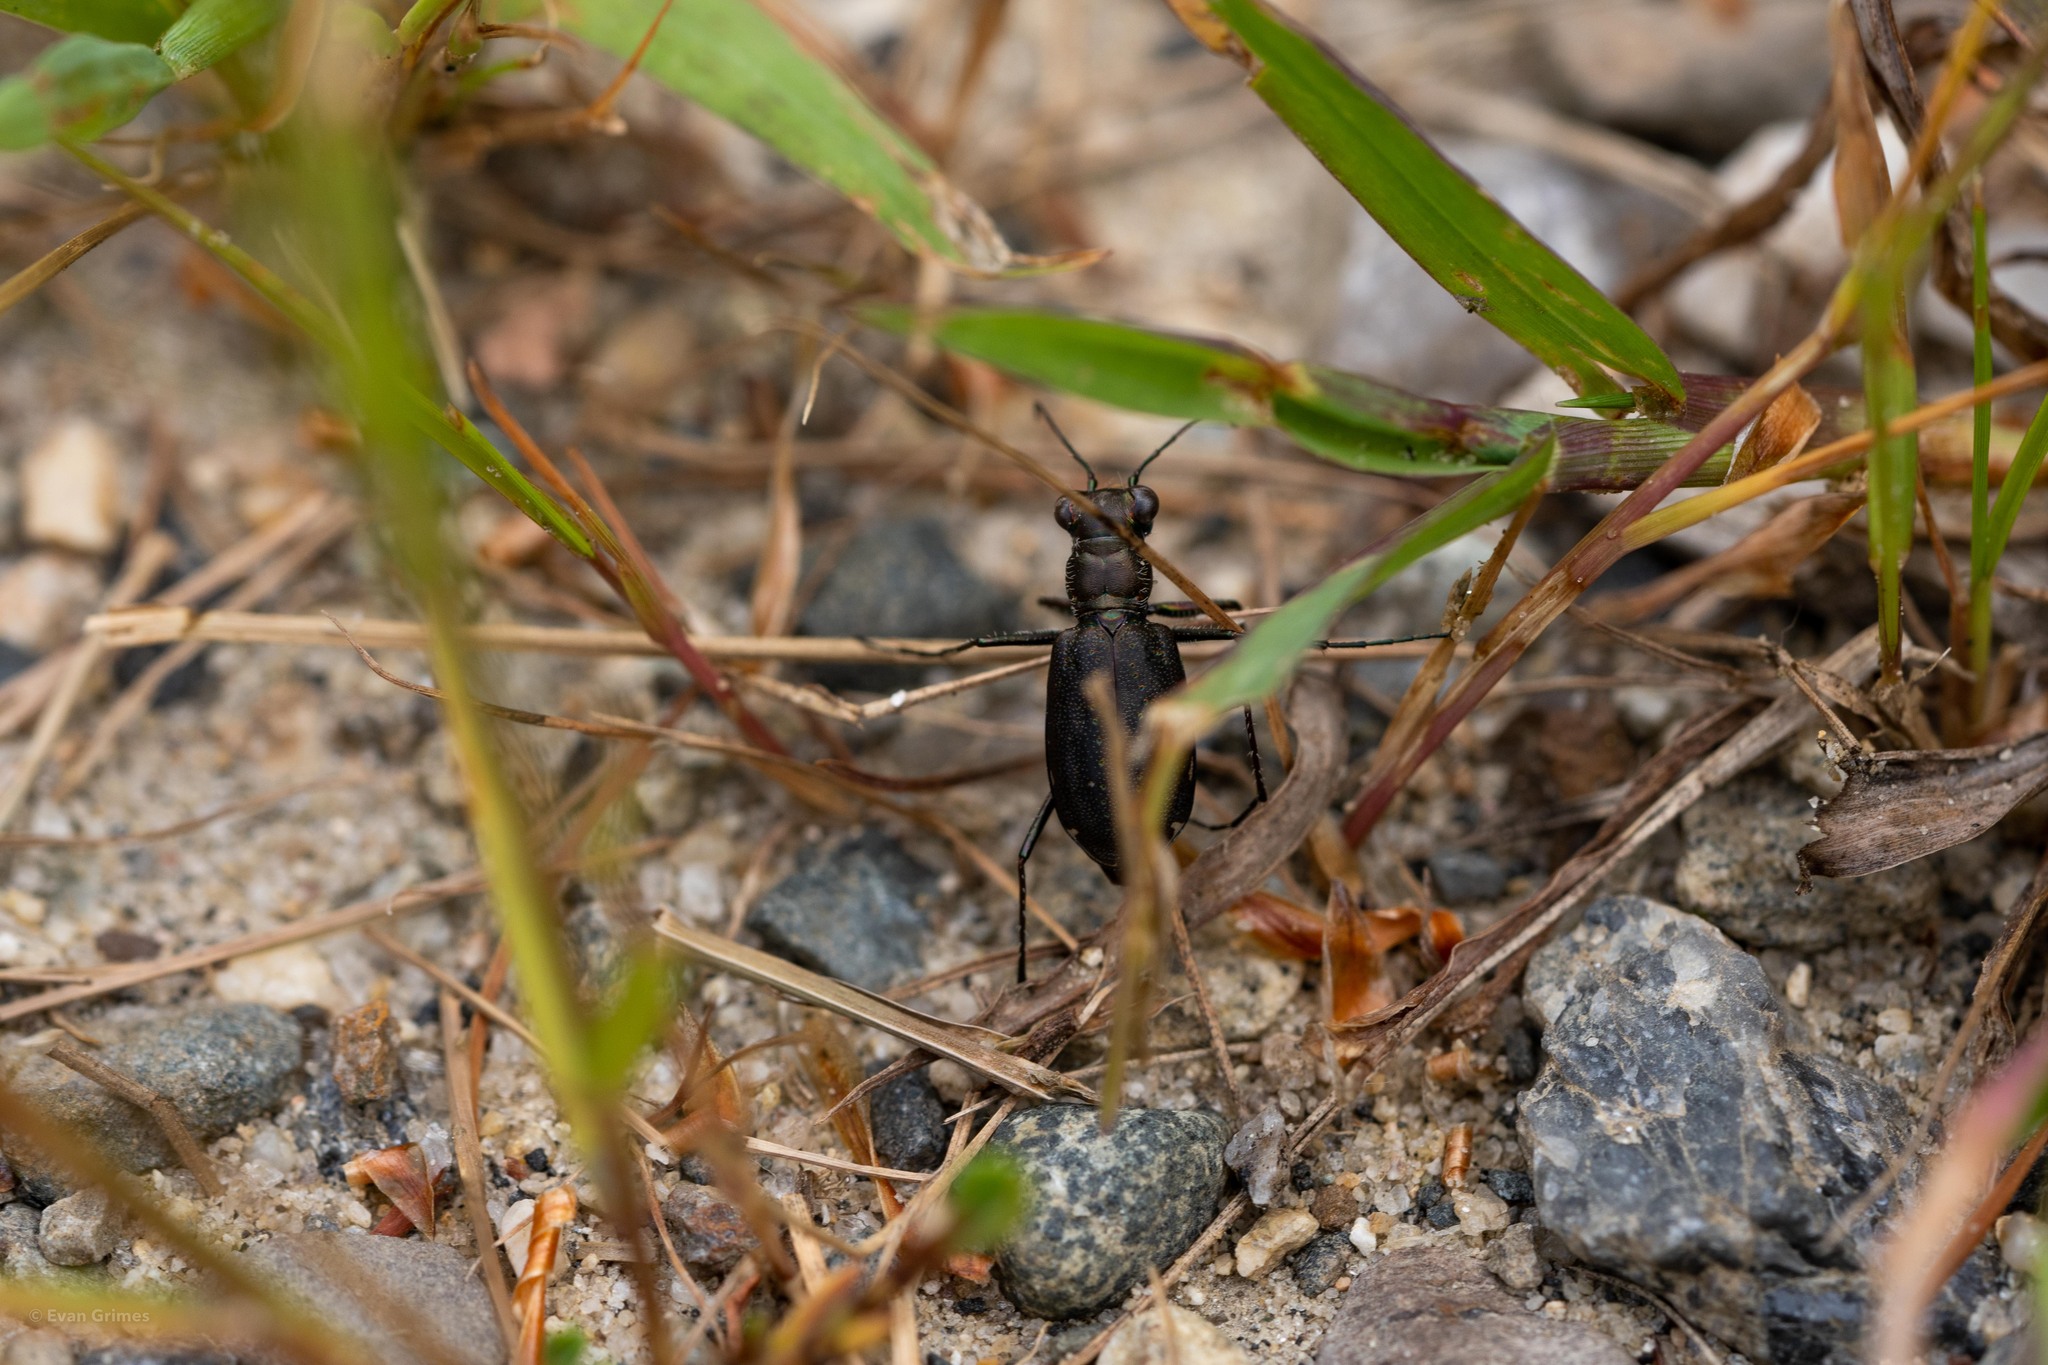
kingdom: Animalia
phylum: Arthropoda
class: Insecta
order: Coleoptera
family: Carabidae
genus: Cicindela
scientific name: Cicindela punctulata
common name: Punctured tiger beetle
